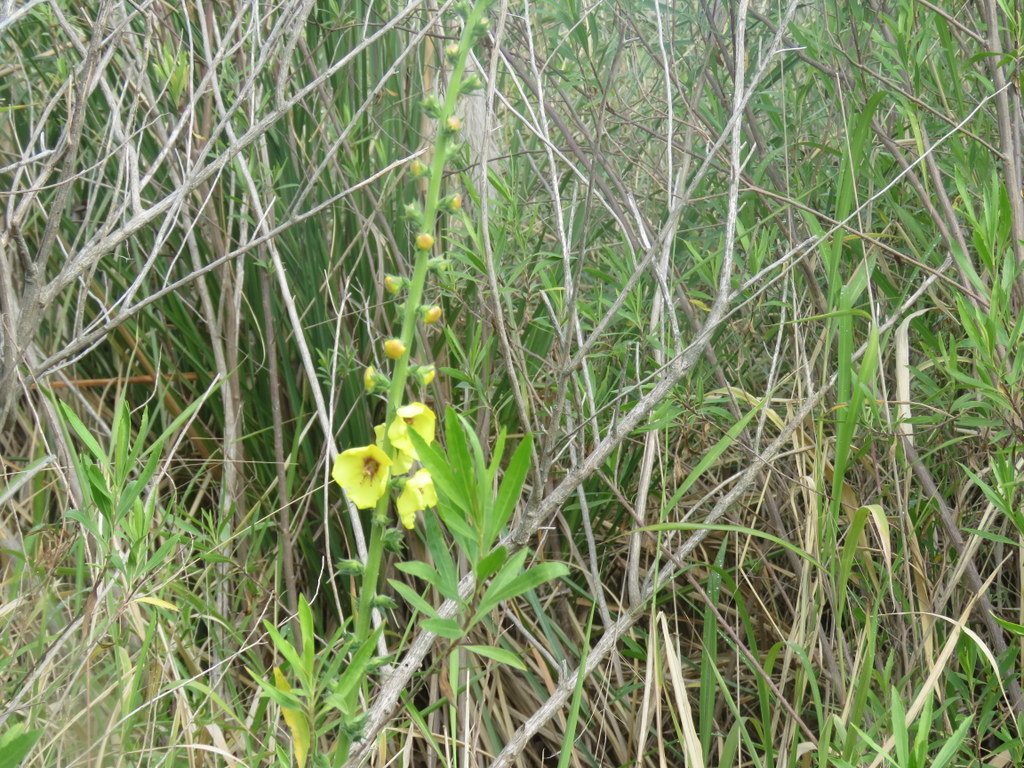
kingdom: Plantae
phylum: Tracheophyta
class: Magnoliopsida
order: Lamiales
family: Scrophulariaceae
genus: Verbascum
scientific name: Verbascum virgatum
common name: Twiggy mullein
